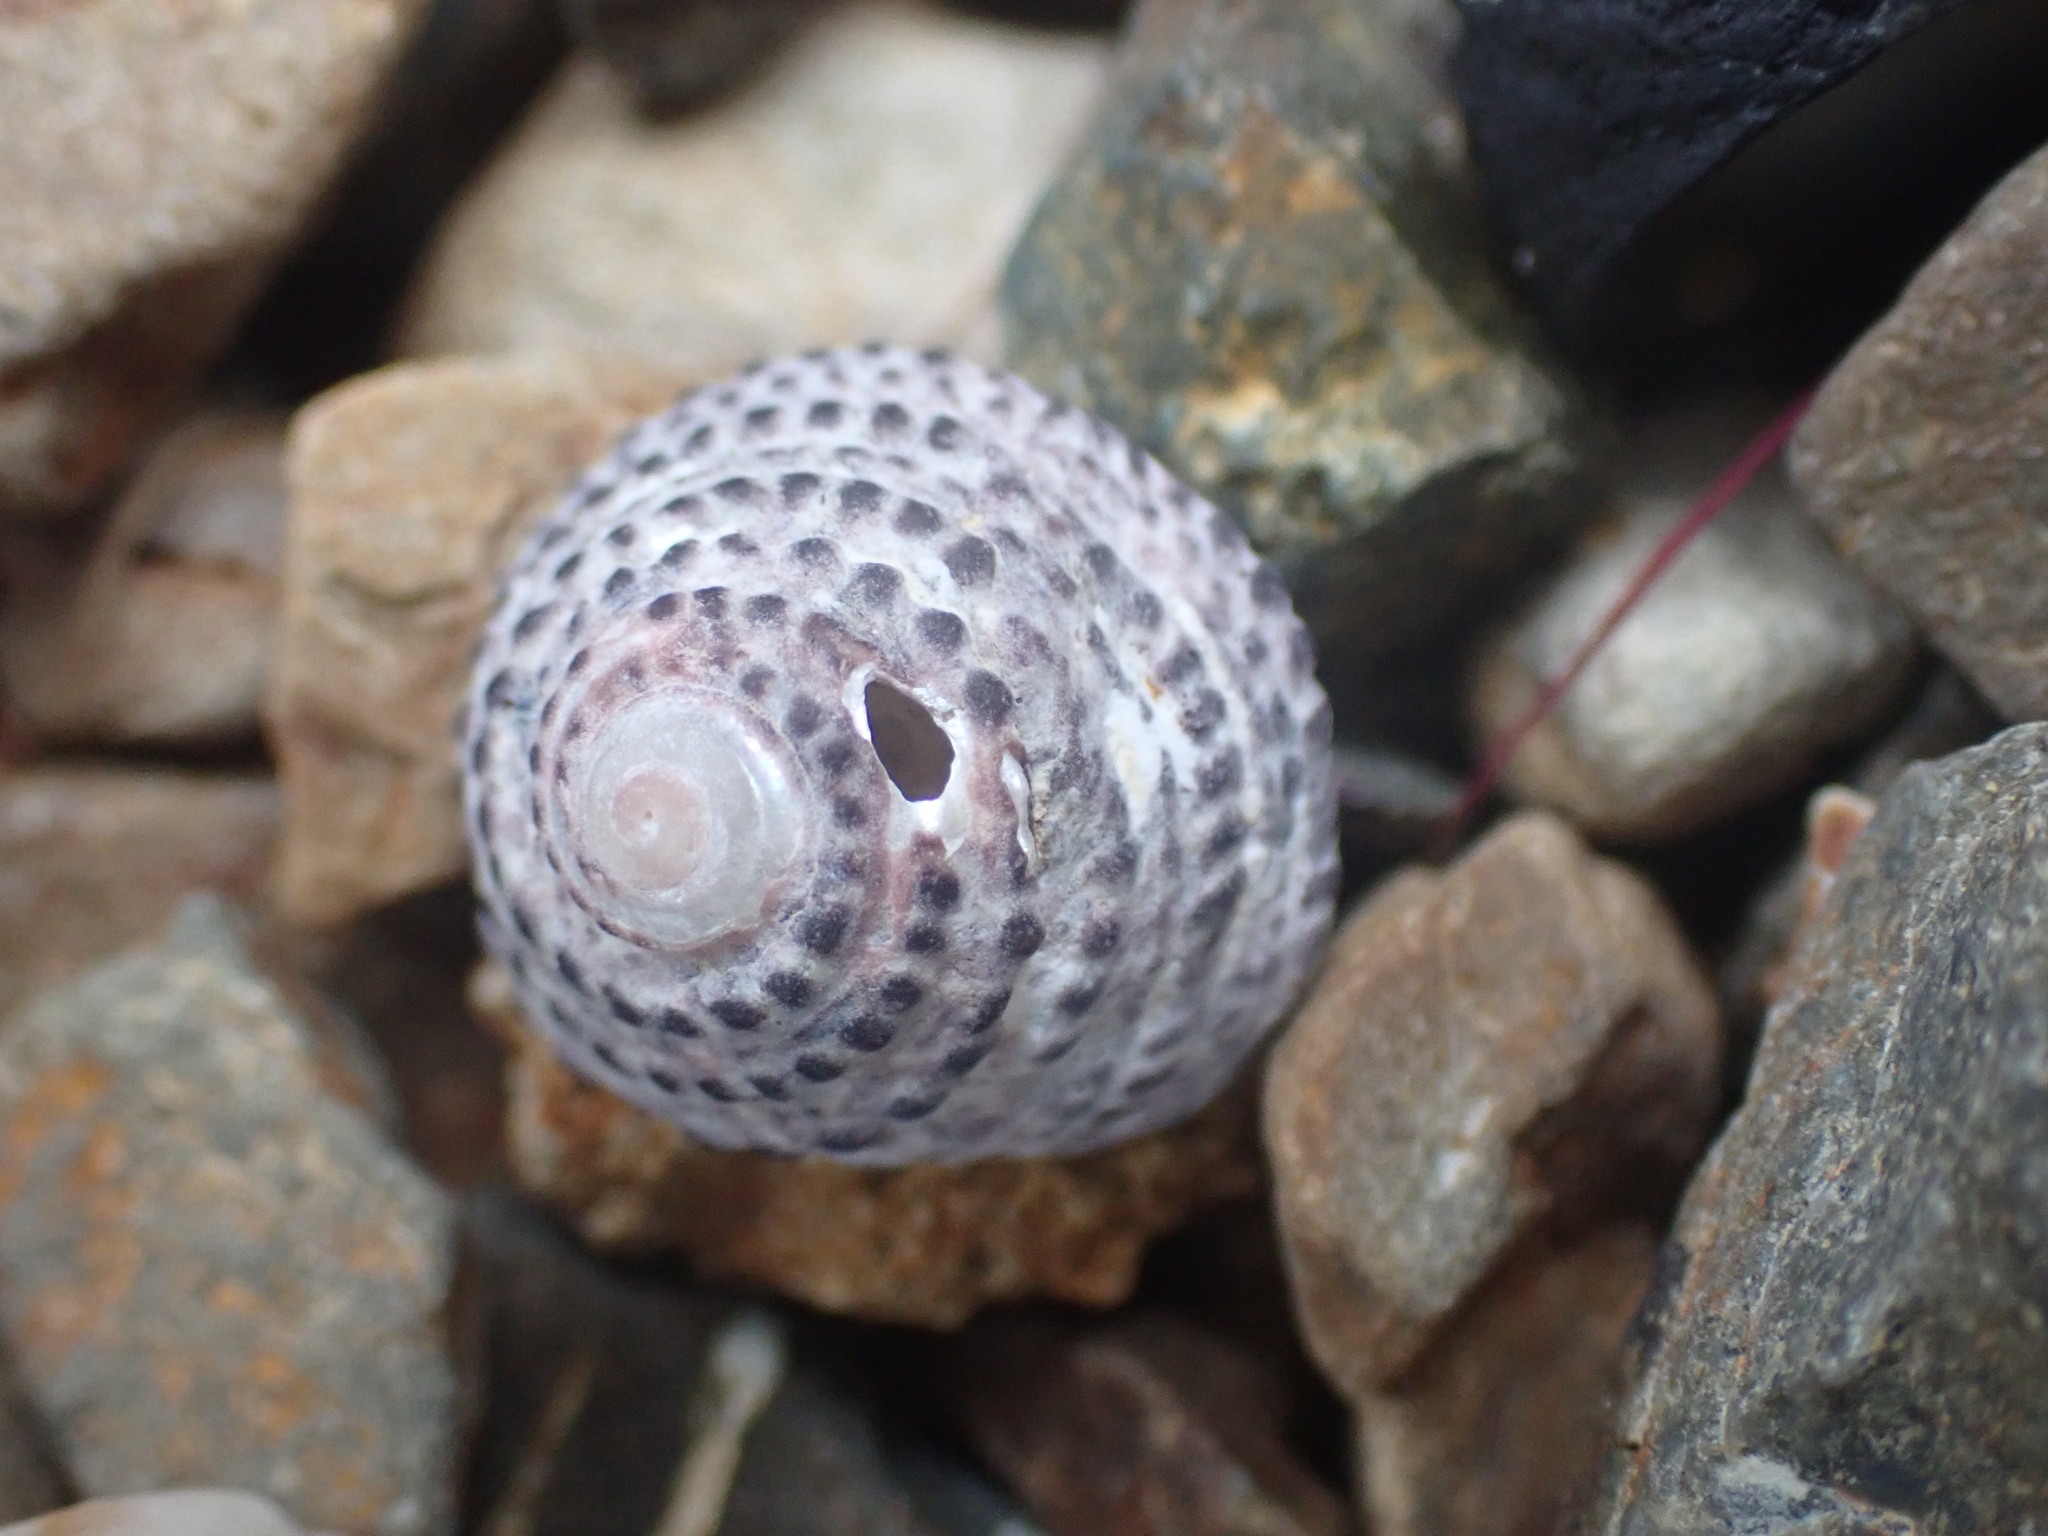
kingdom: Animalia
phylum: Mollusca
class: Gastropoda
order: Trochida
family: Trochidae
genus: Diloma
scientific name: Diloma bicanaliculatum
